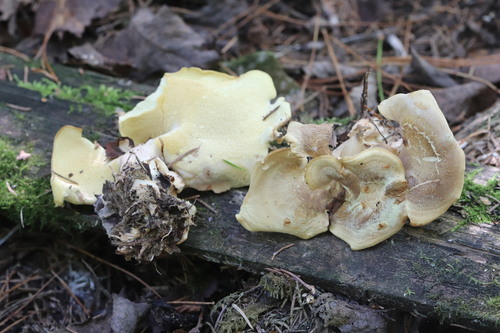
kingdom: Fungi
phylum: Basidiomycota
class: Agaricomycetes
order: Polyporales
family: Steccherinaceae
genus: Xanthoporus
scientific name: Xanthoporus syringae
